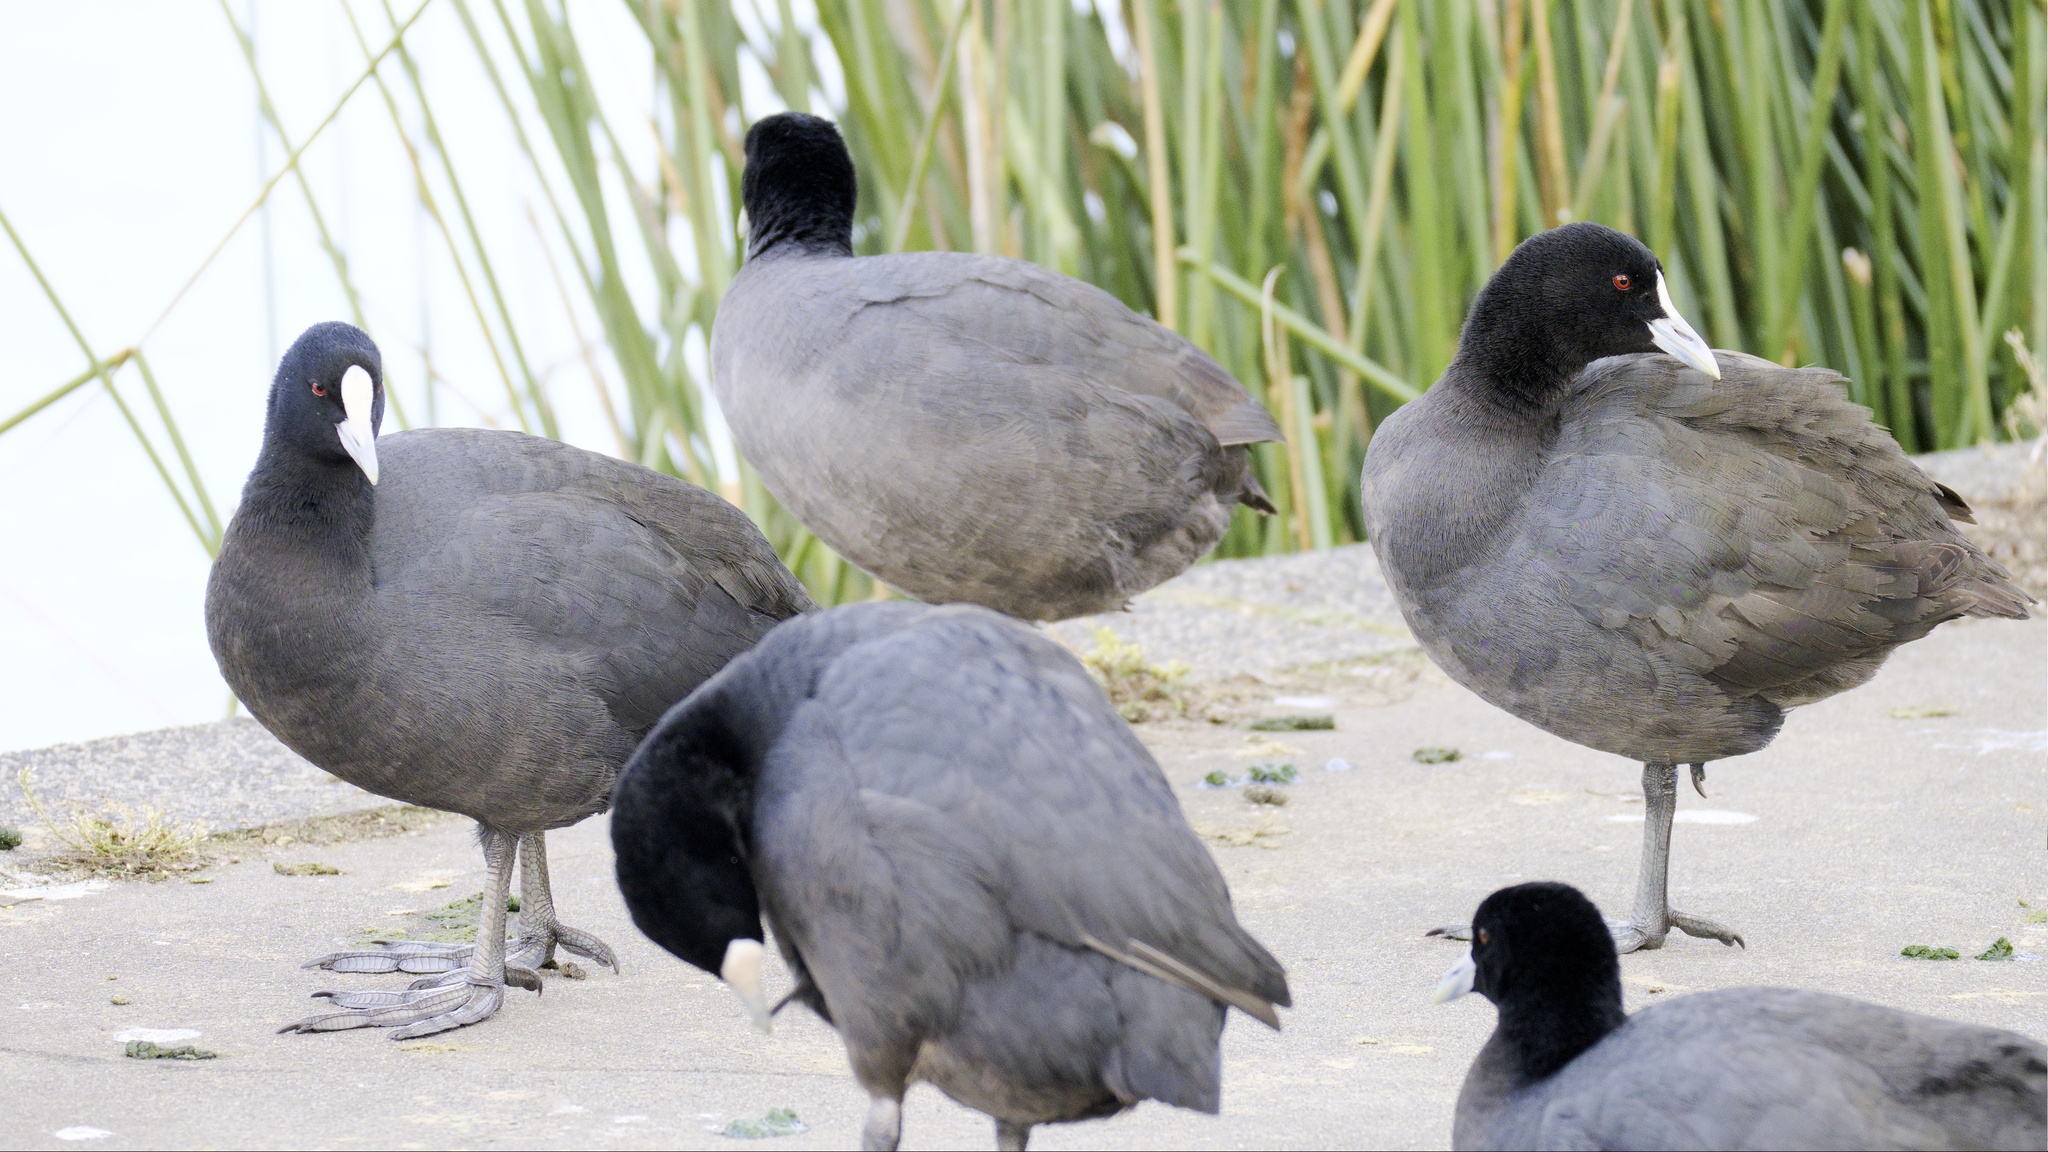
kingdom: Animalia
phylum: Chordata
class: Aves
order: Gruiformes
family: Rallidae
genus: Fulica
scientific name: Fulica atra
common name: Eurasian coot
